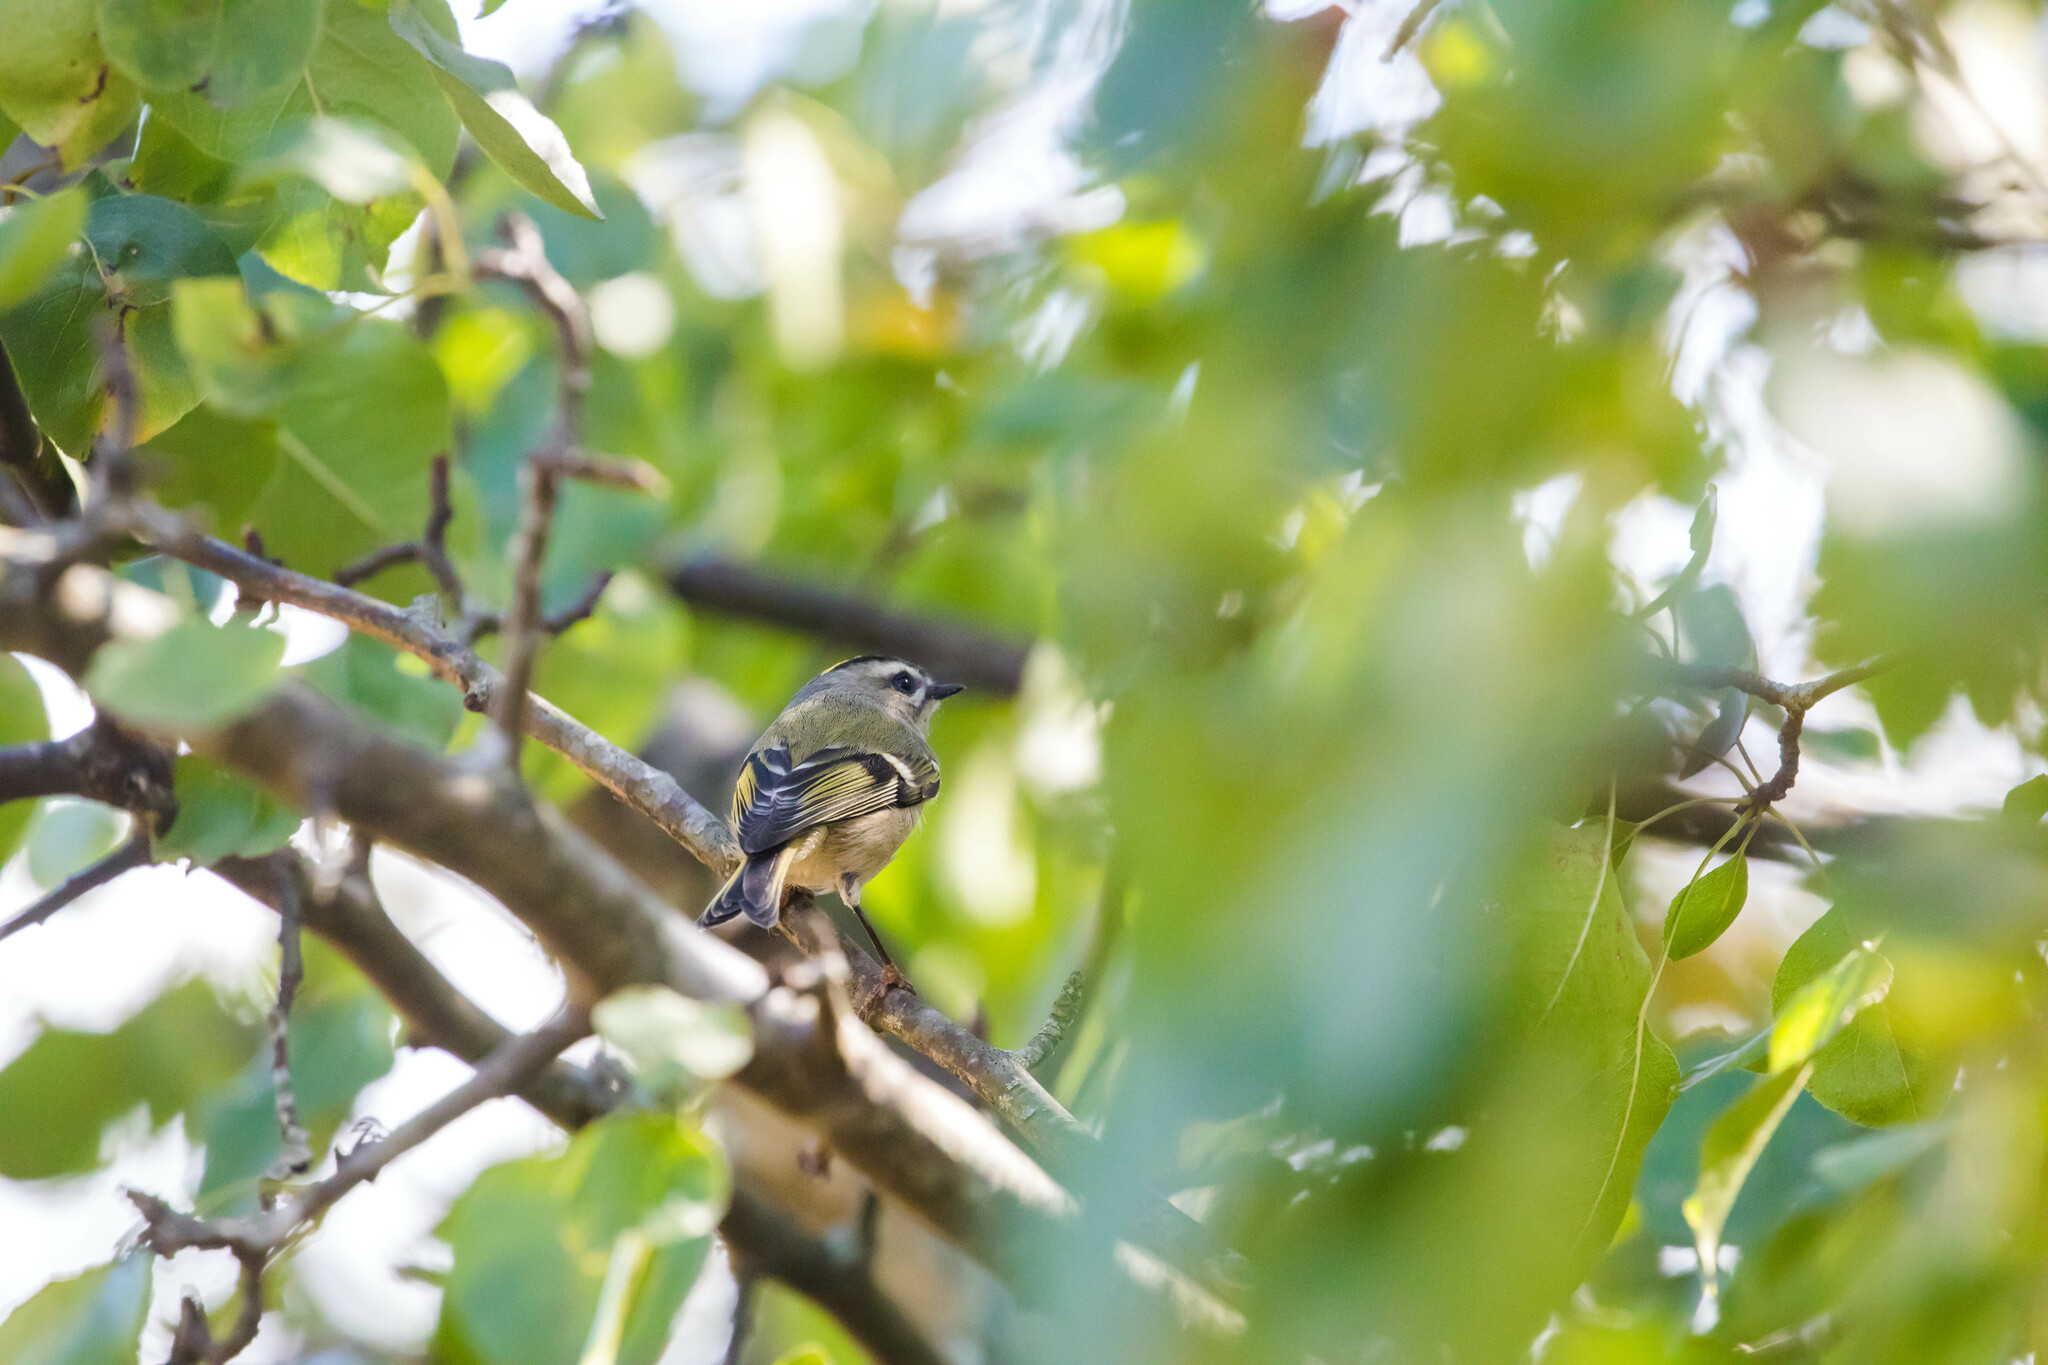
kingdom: Animalia
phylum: Chordata
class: Aves
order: Passeriformes
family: Regulidae
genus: Regulus
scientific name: Regulus satrapa
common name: Golden-crowned kinglet
